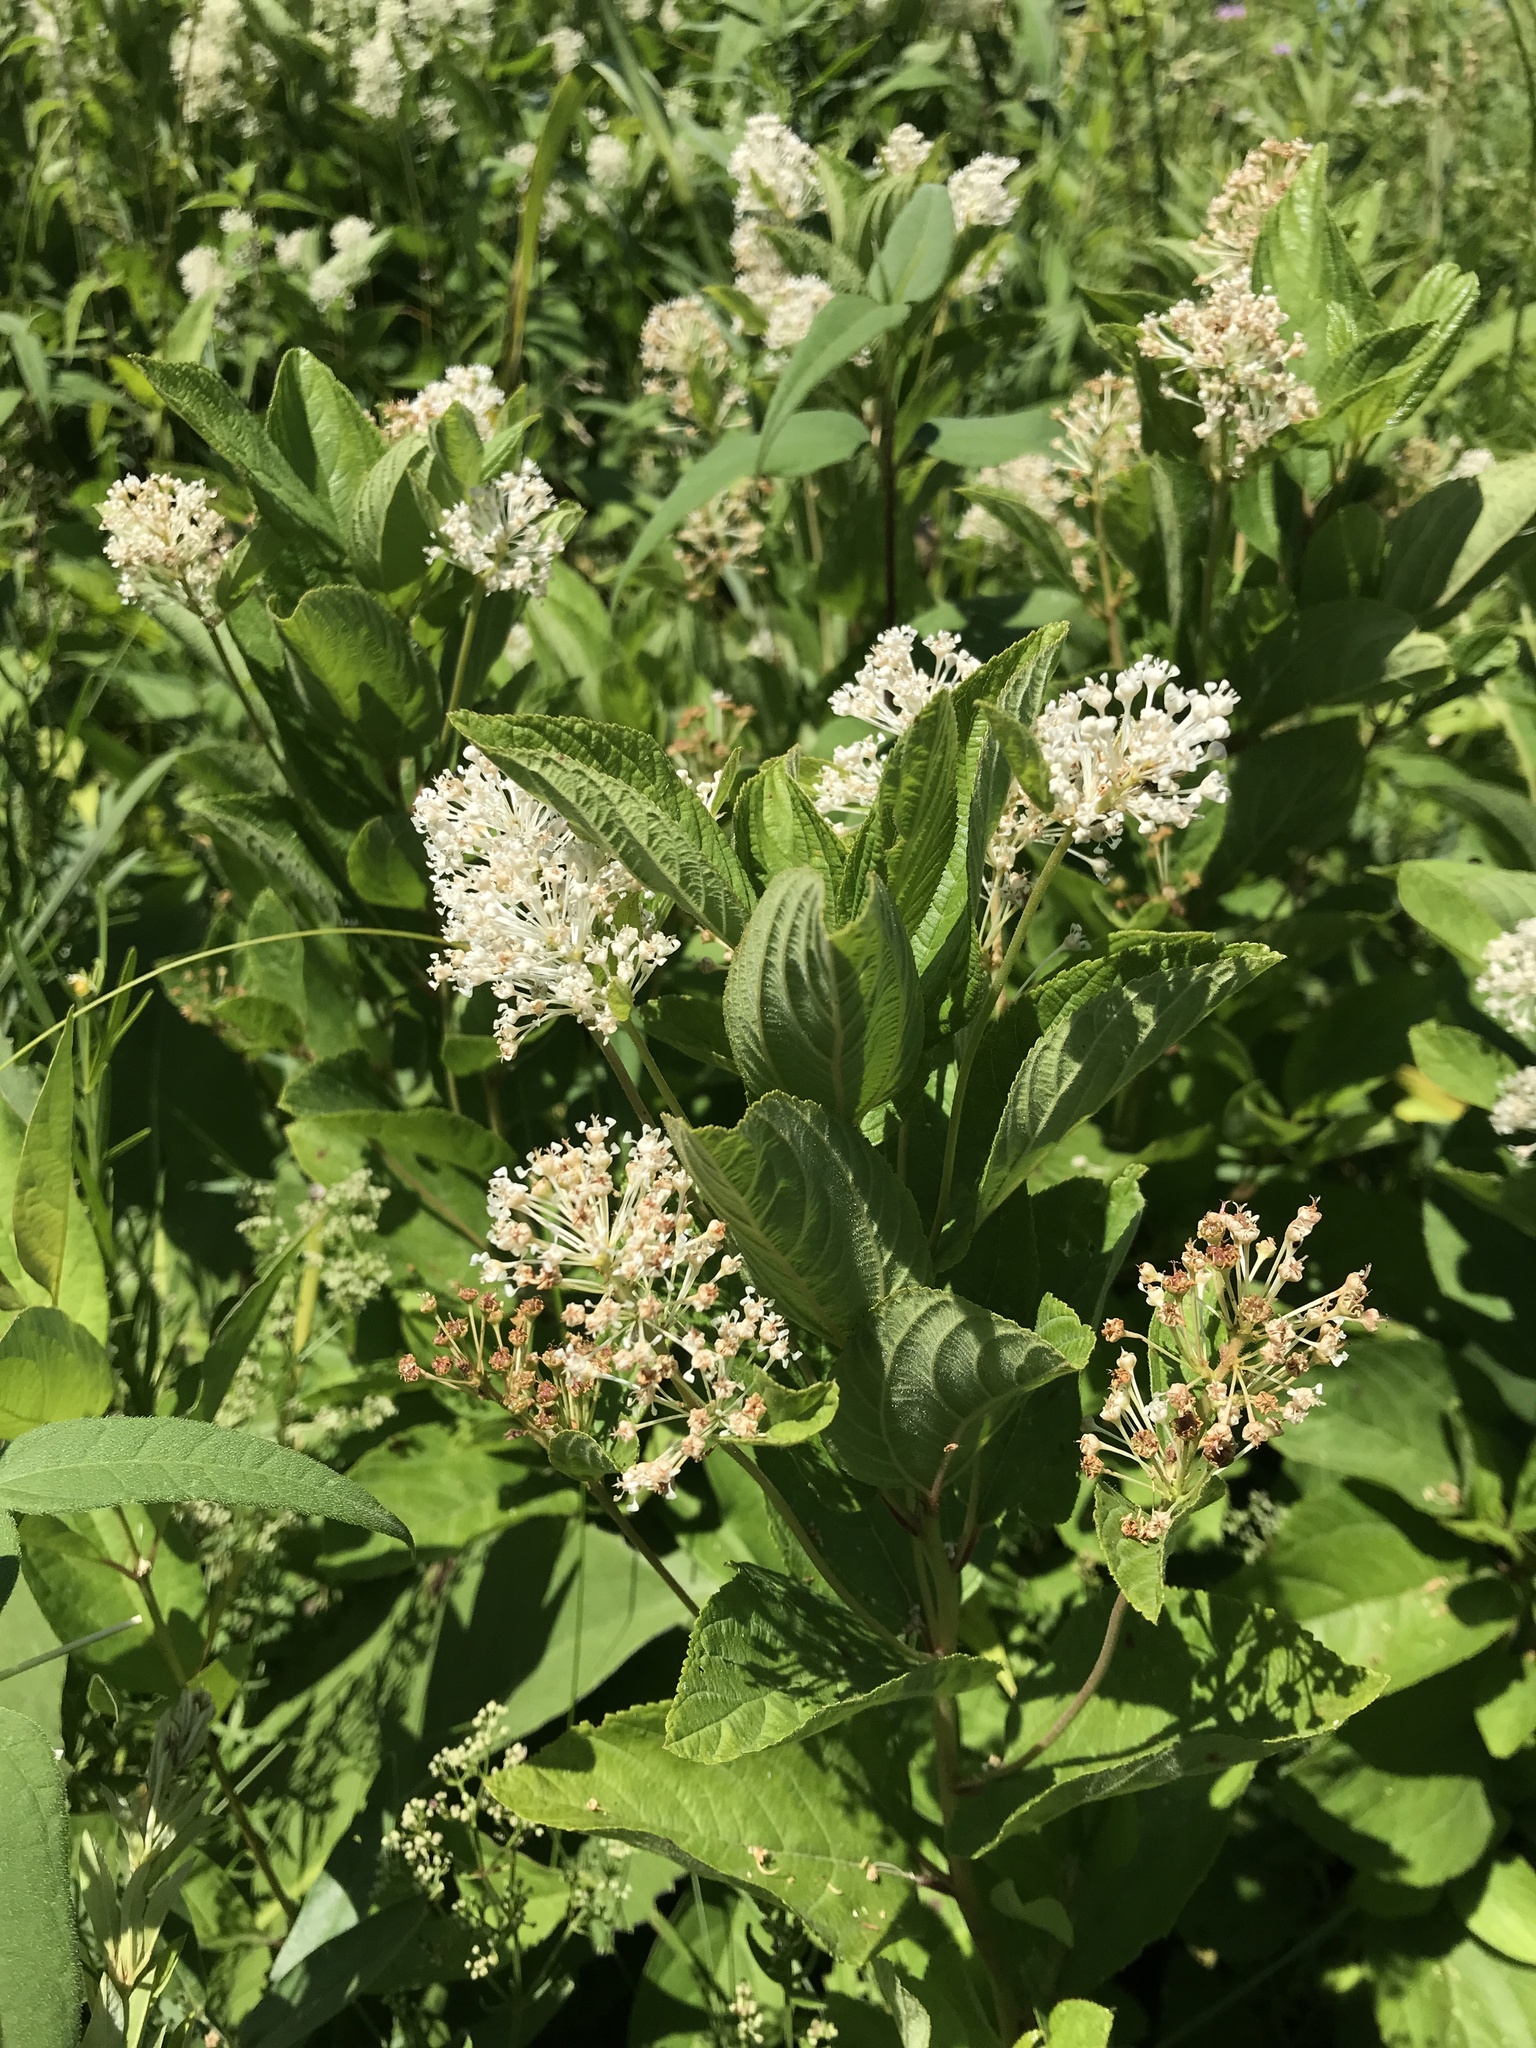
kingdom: Plantae
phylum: Tracheophyta
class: Magnoliopsida
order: Rosales
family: Rhamnaceae
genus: Ceanothus
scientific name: Ceanothus americanus
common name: Redroot
